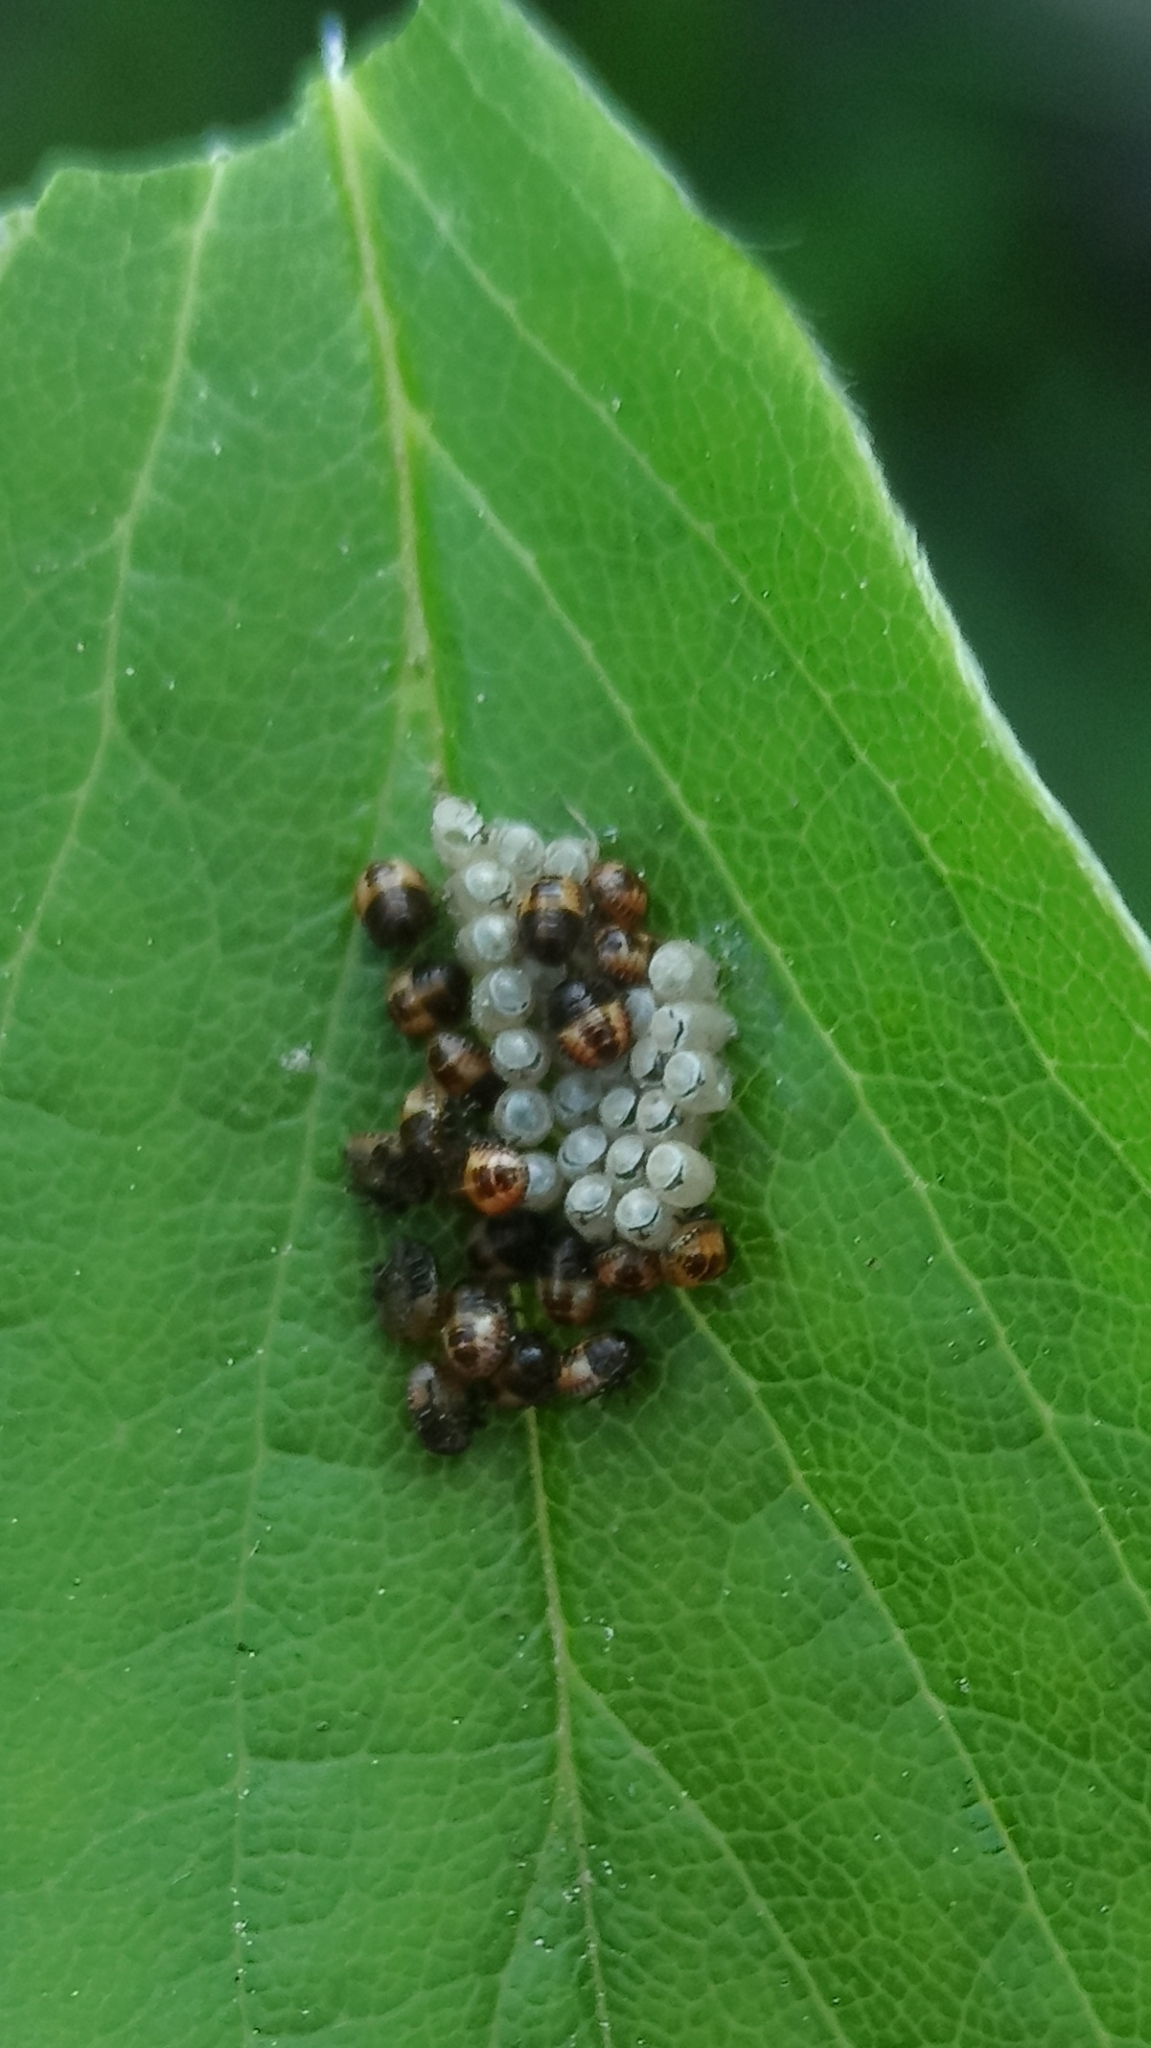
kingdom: Animalia
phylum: Arthropoda
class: Insecta
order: Hemiptera
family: Pentatomidae
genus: Dolycoris
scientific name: Dolycoris baccarum
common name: Sloe bug
